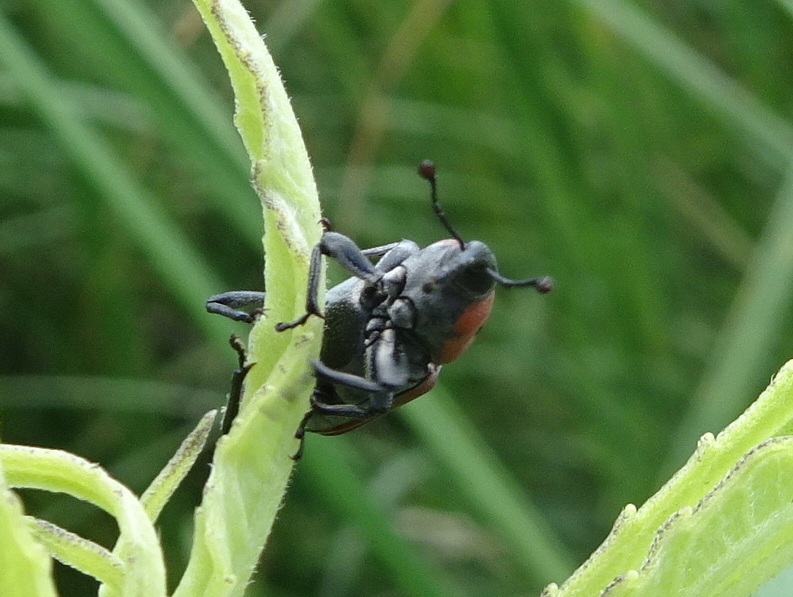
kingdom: Animalia
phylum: Arthropoda
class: Insecta
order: Coleoptera
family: Dryophthoridae
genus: Rhodobaenus
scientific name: Rhodobaenus tredecimpunctatus
